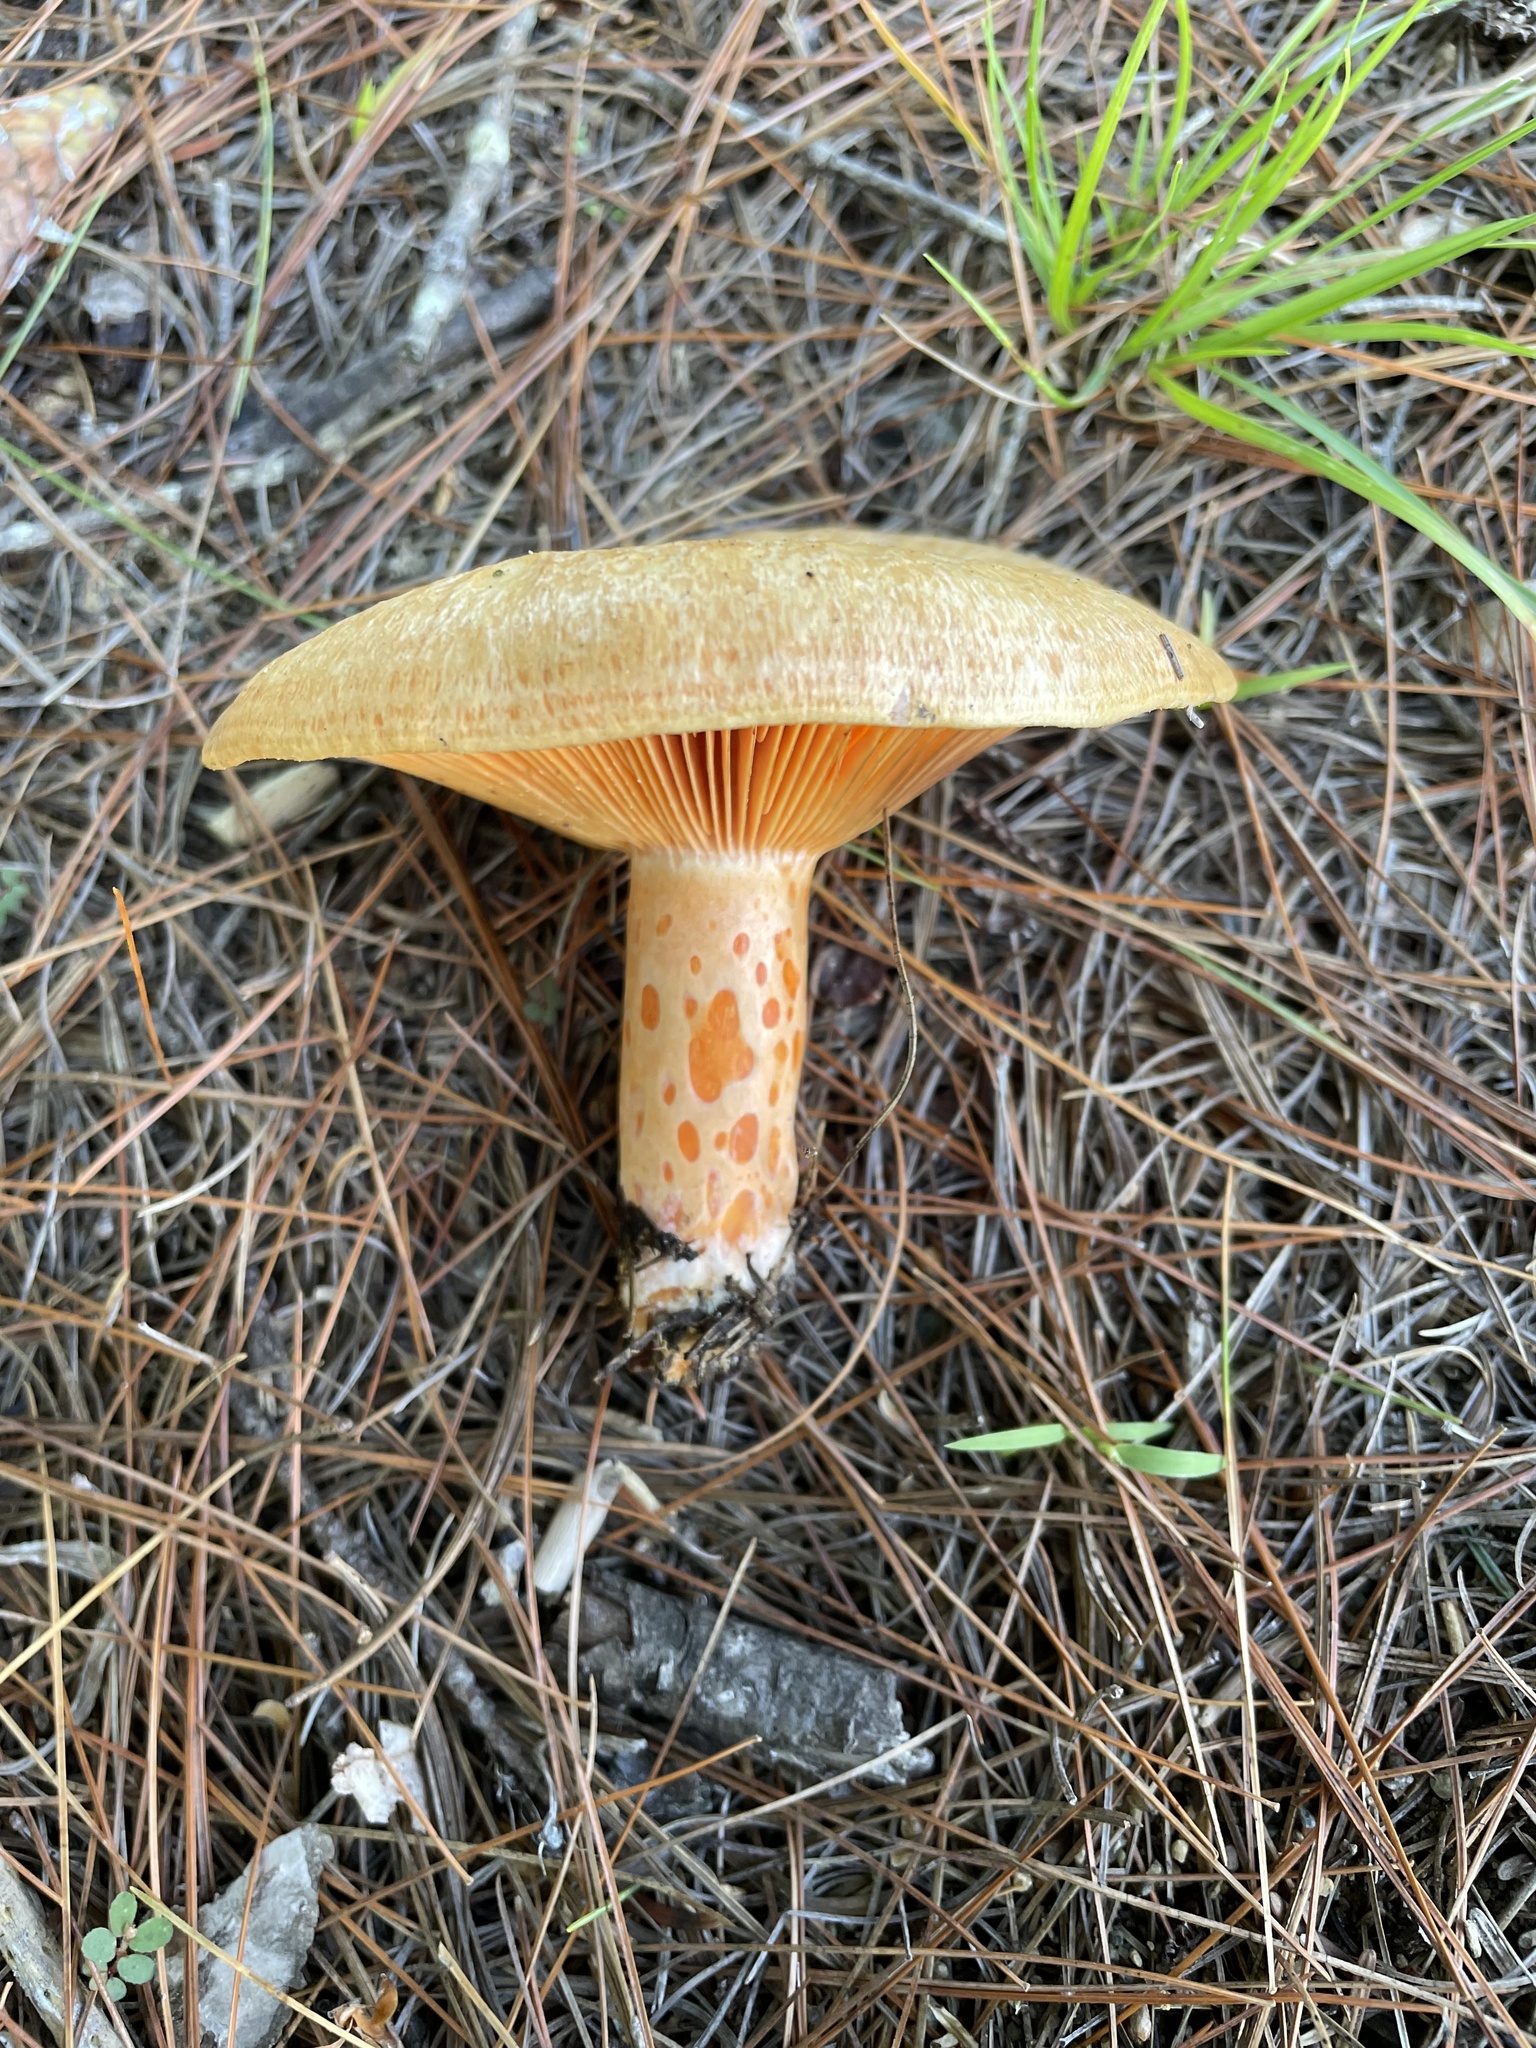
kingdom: Fungi
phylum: Basidiomycota
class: Agaricomycetes
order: Russulales
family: Russulaceae
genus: Lactarius
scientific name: Lactarius salmonicolor
